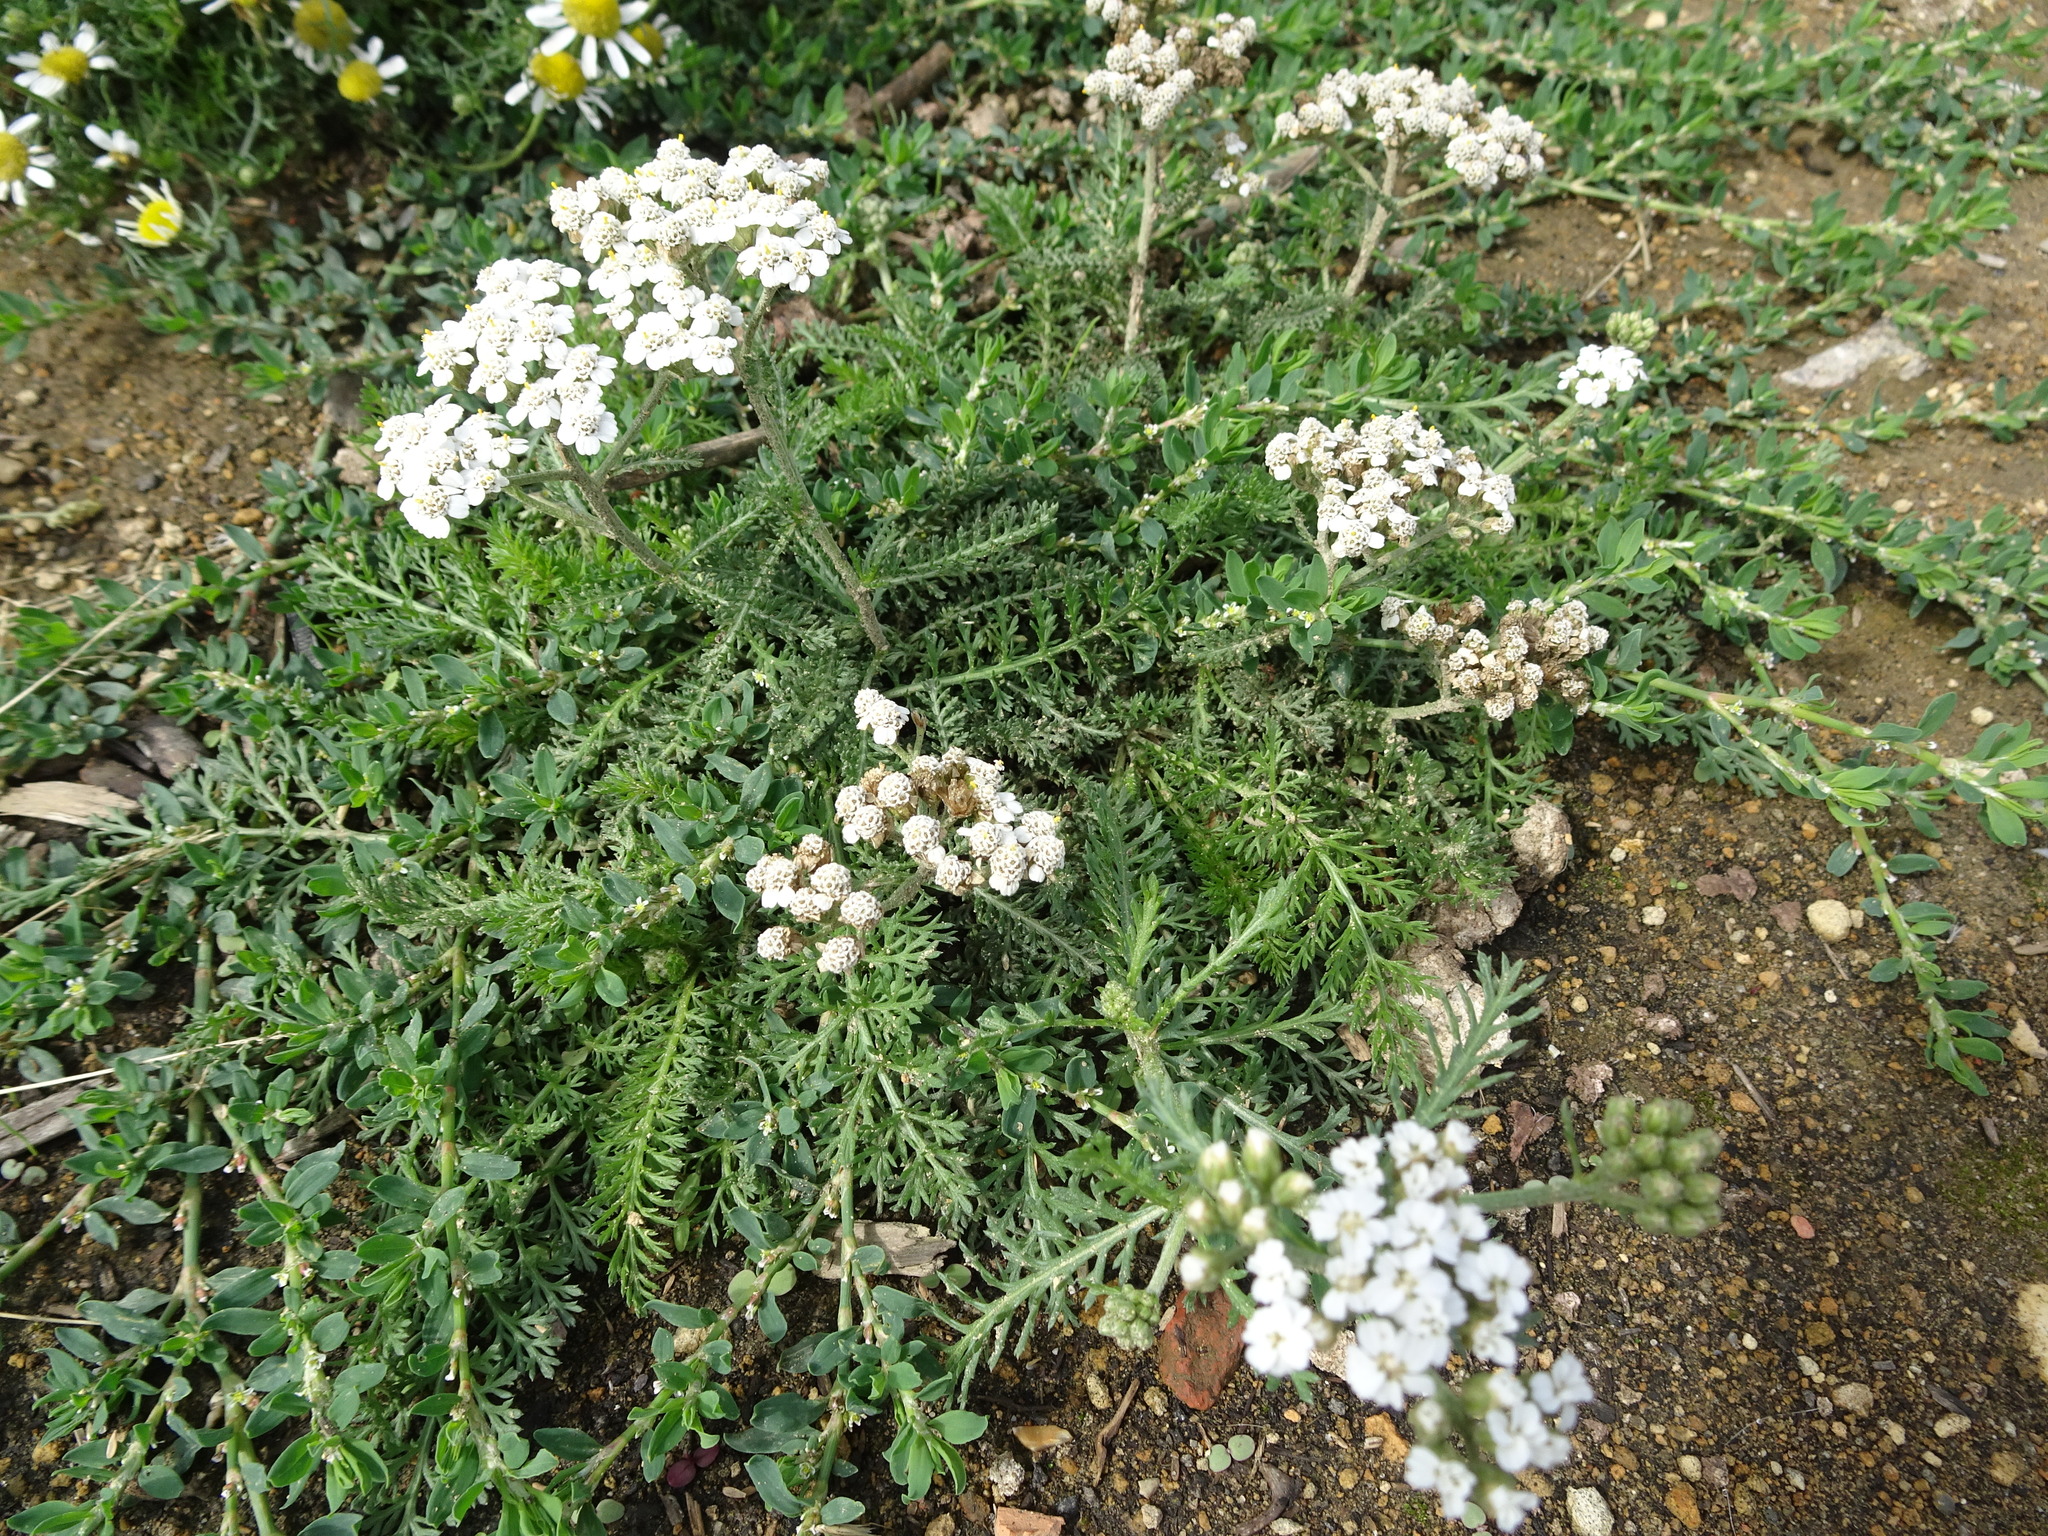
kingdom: Plantae
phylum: Tracheophyta
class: Magnoliopsida
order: Asterales
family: Asteraceae
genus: Achillea
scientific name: Achillea millefolium
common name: Yarrow
